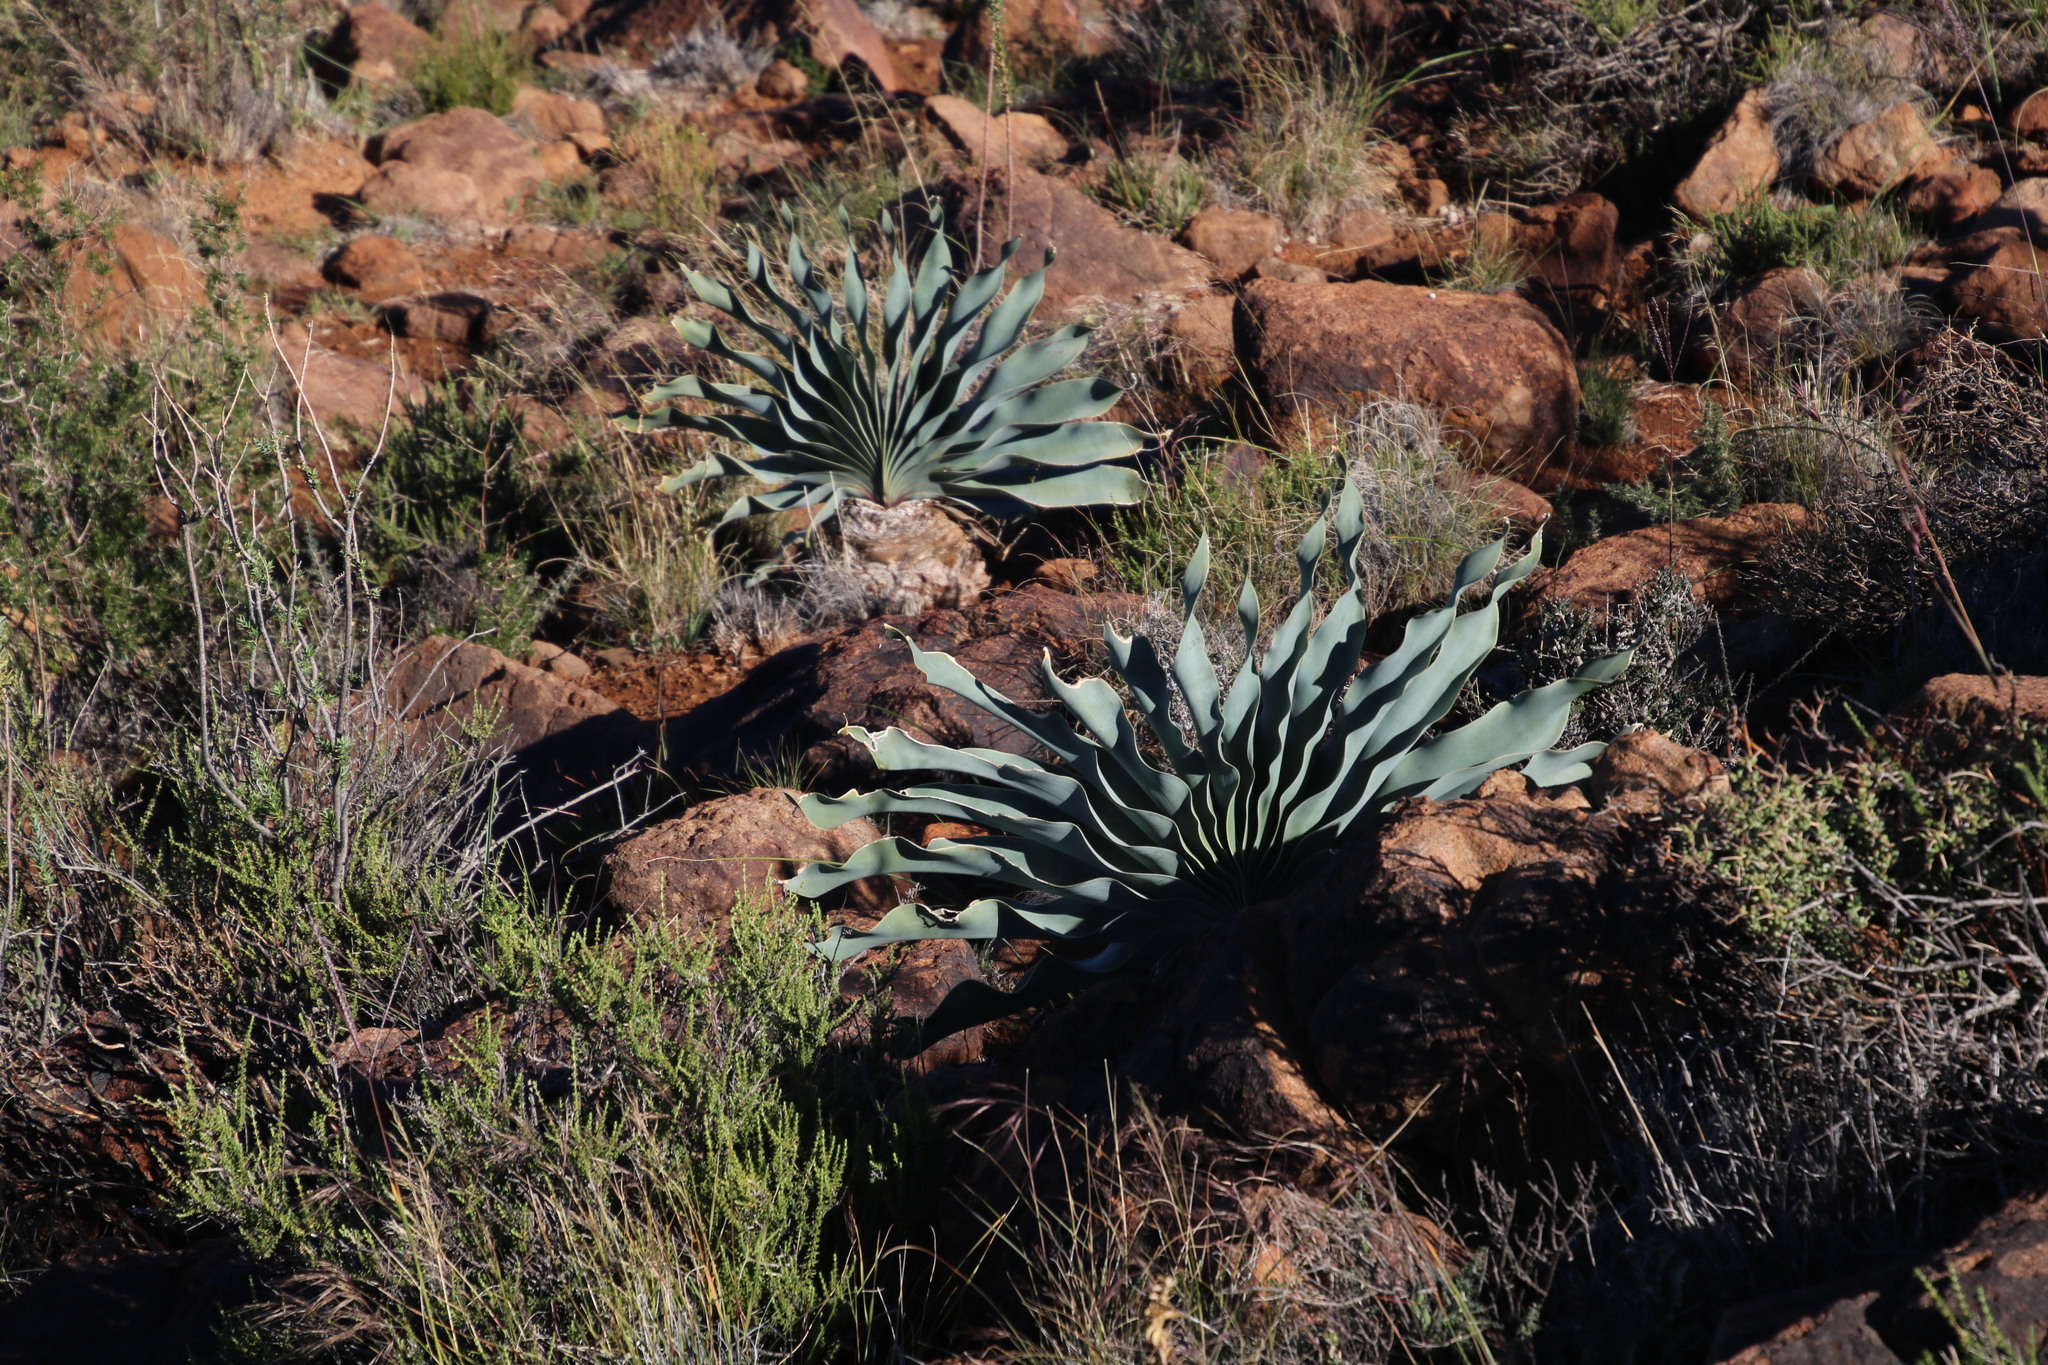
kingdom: Plantae
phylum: Tracheophyta
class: Liliopsida
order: Asparagales
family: Amaryllidaceae
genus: Boophone
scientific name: Boophone disticha
